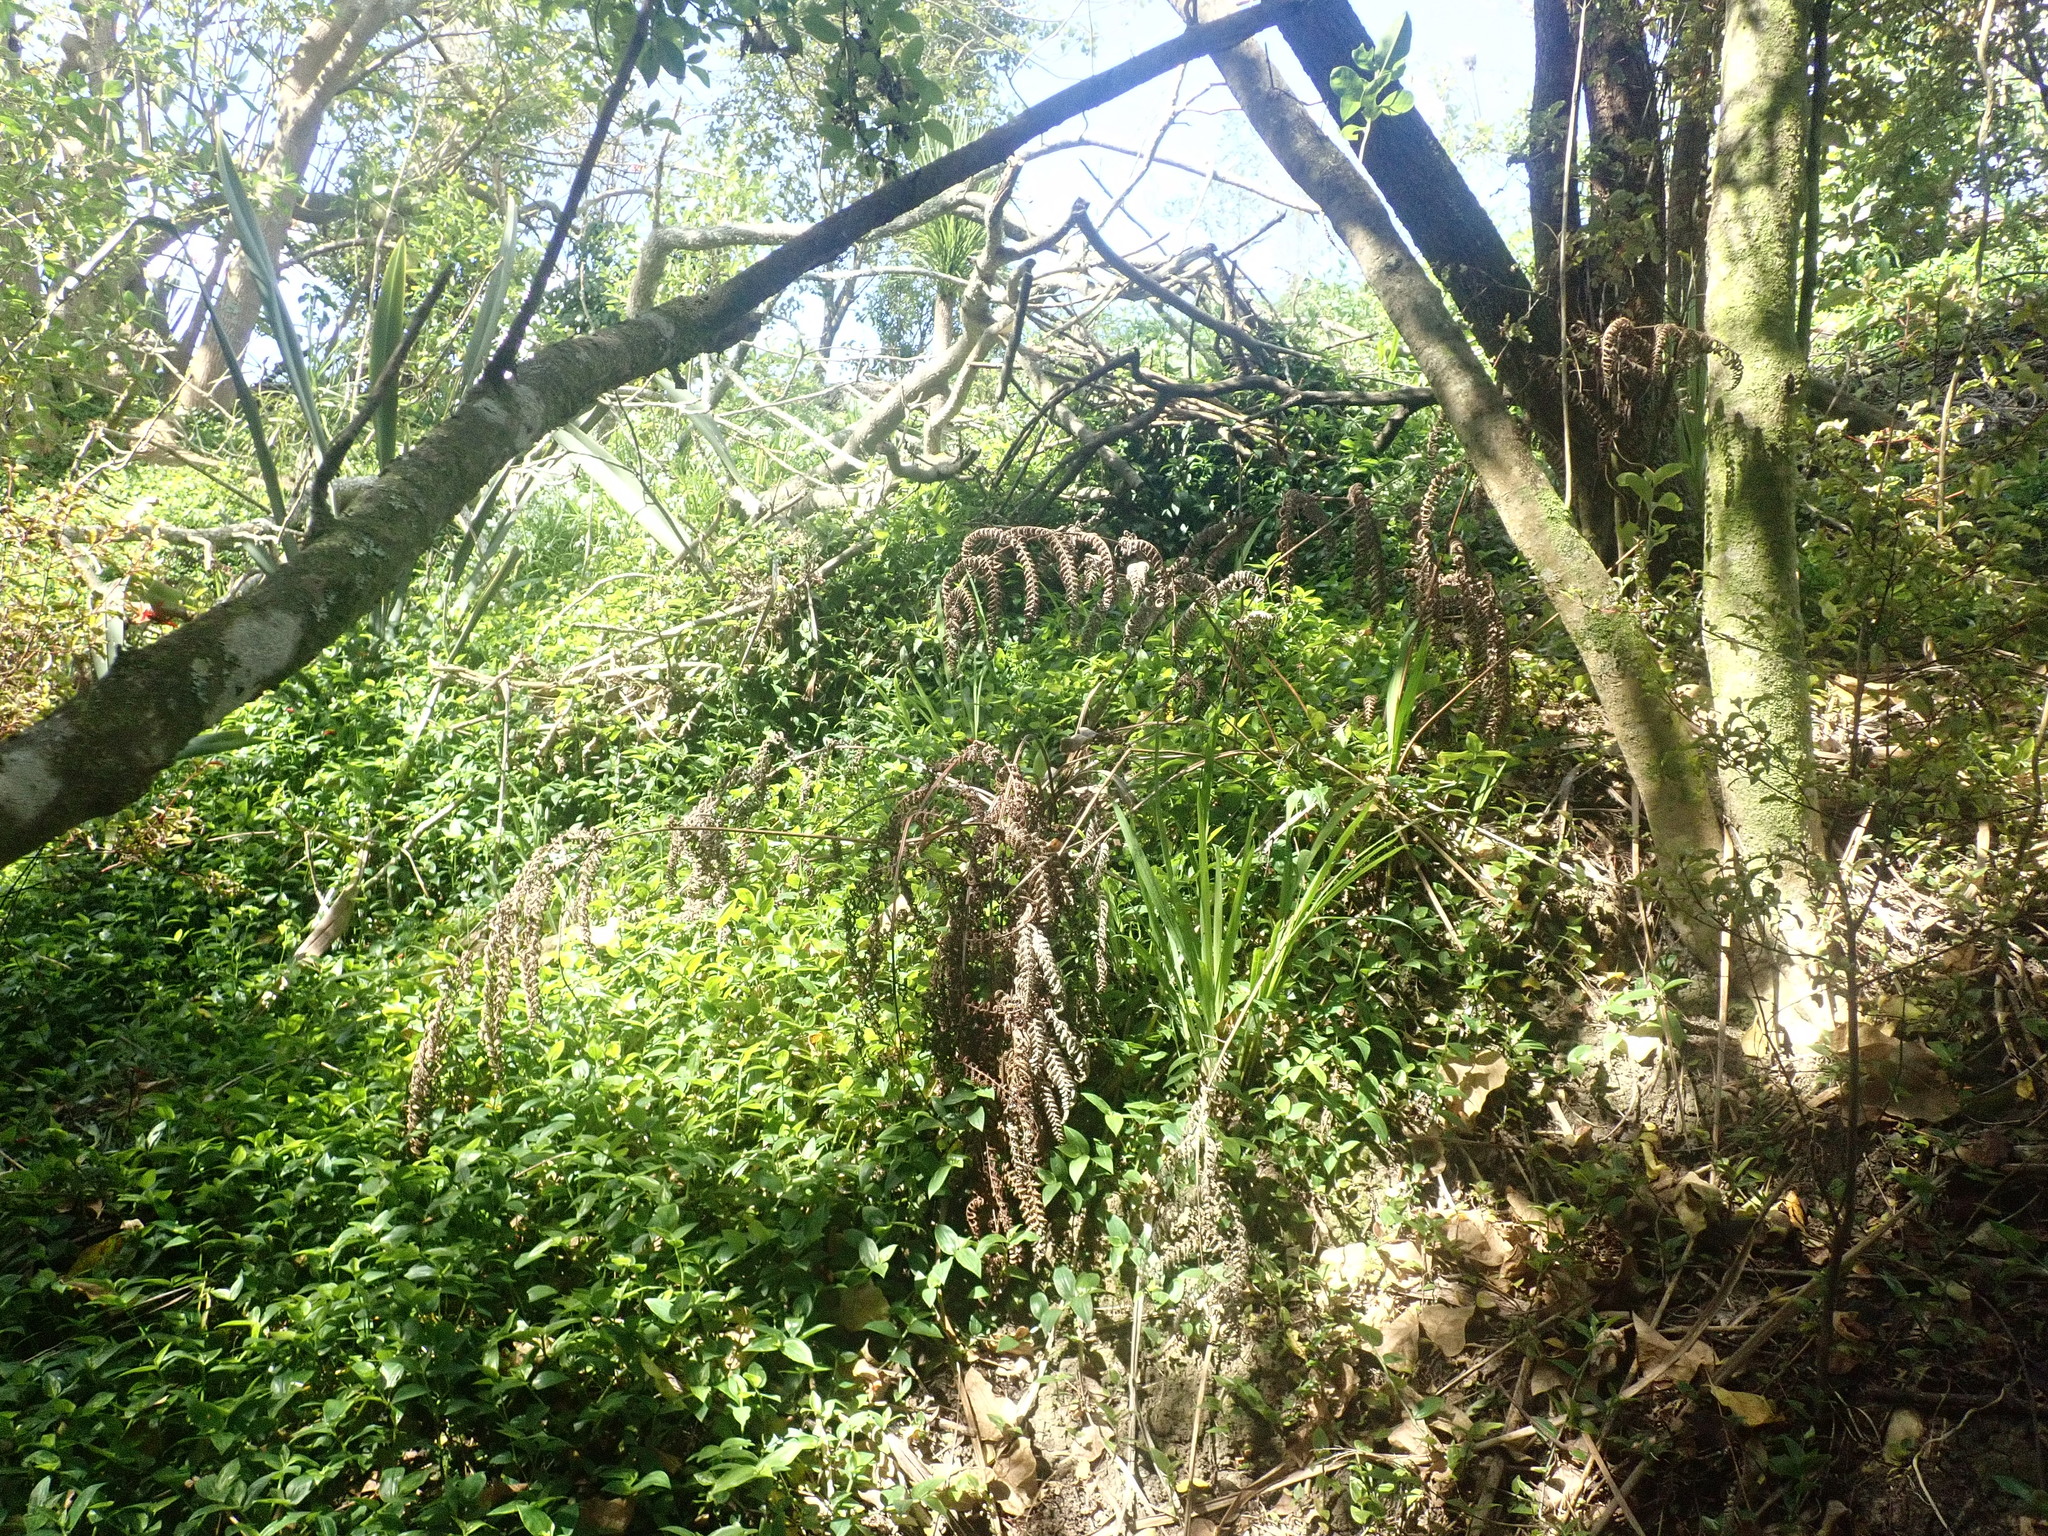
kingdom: Plantae
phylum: Tracheophyta
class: Magnoliopsida
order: Gentianales
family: Rubiaceae
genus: Coprosma
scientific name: Coprosma robusta
